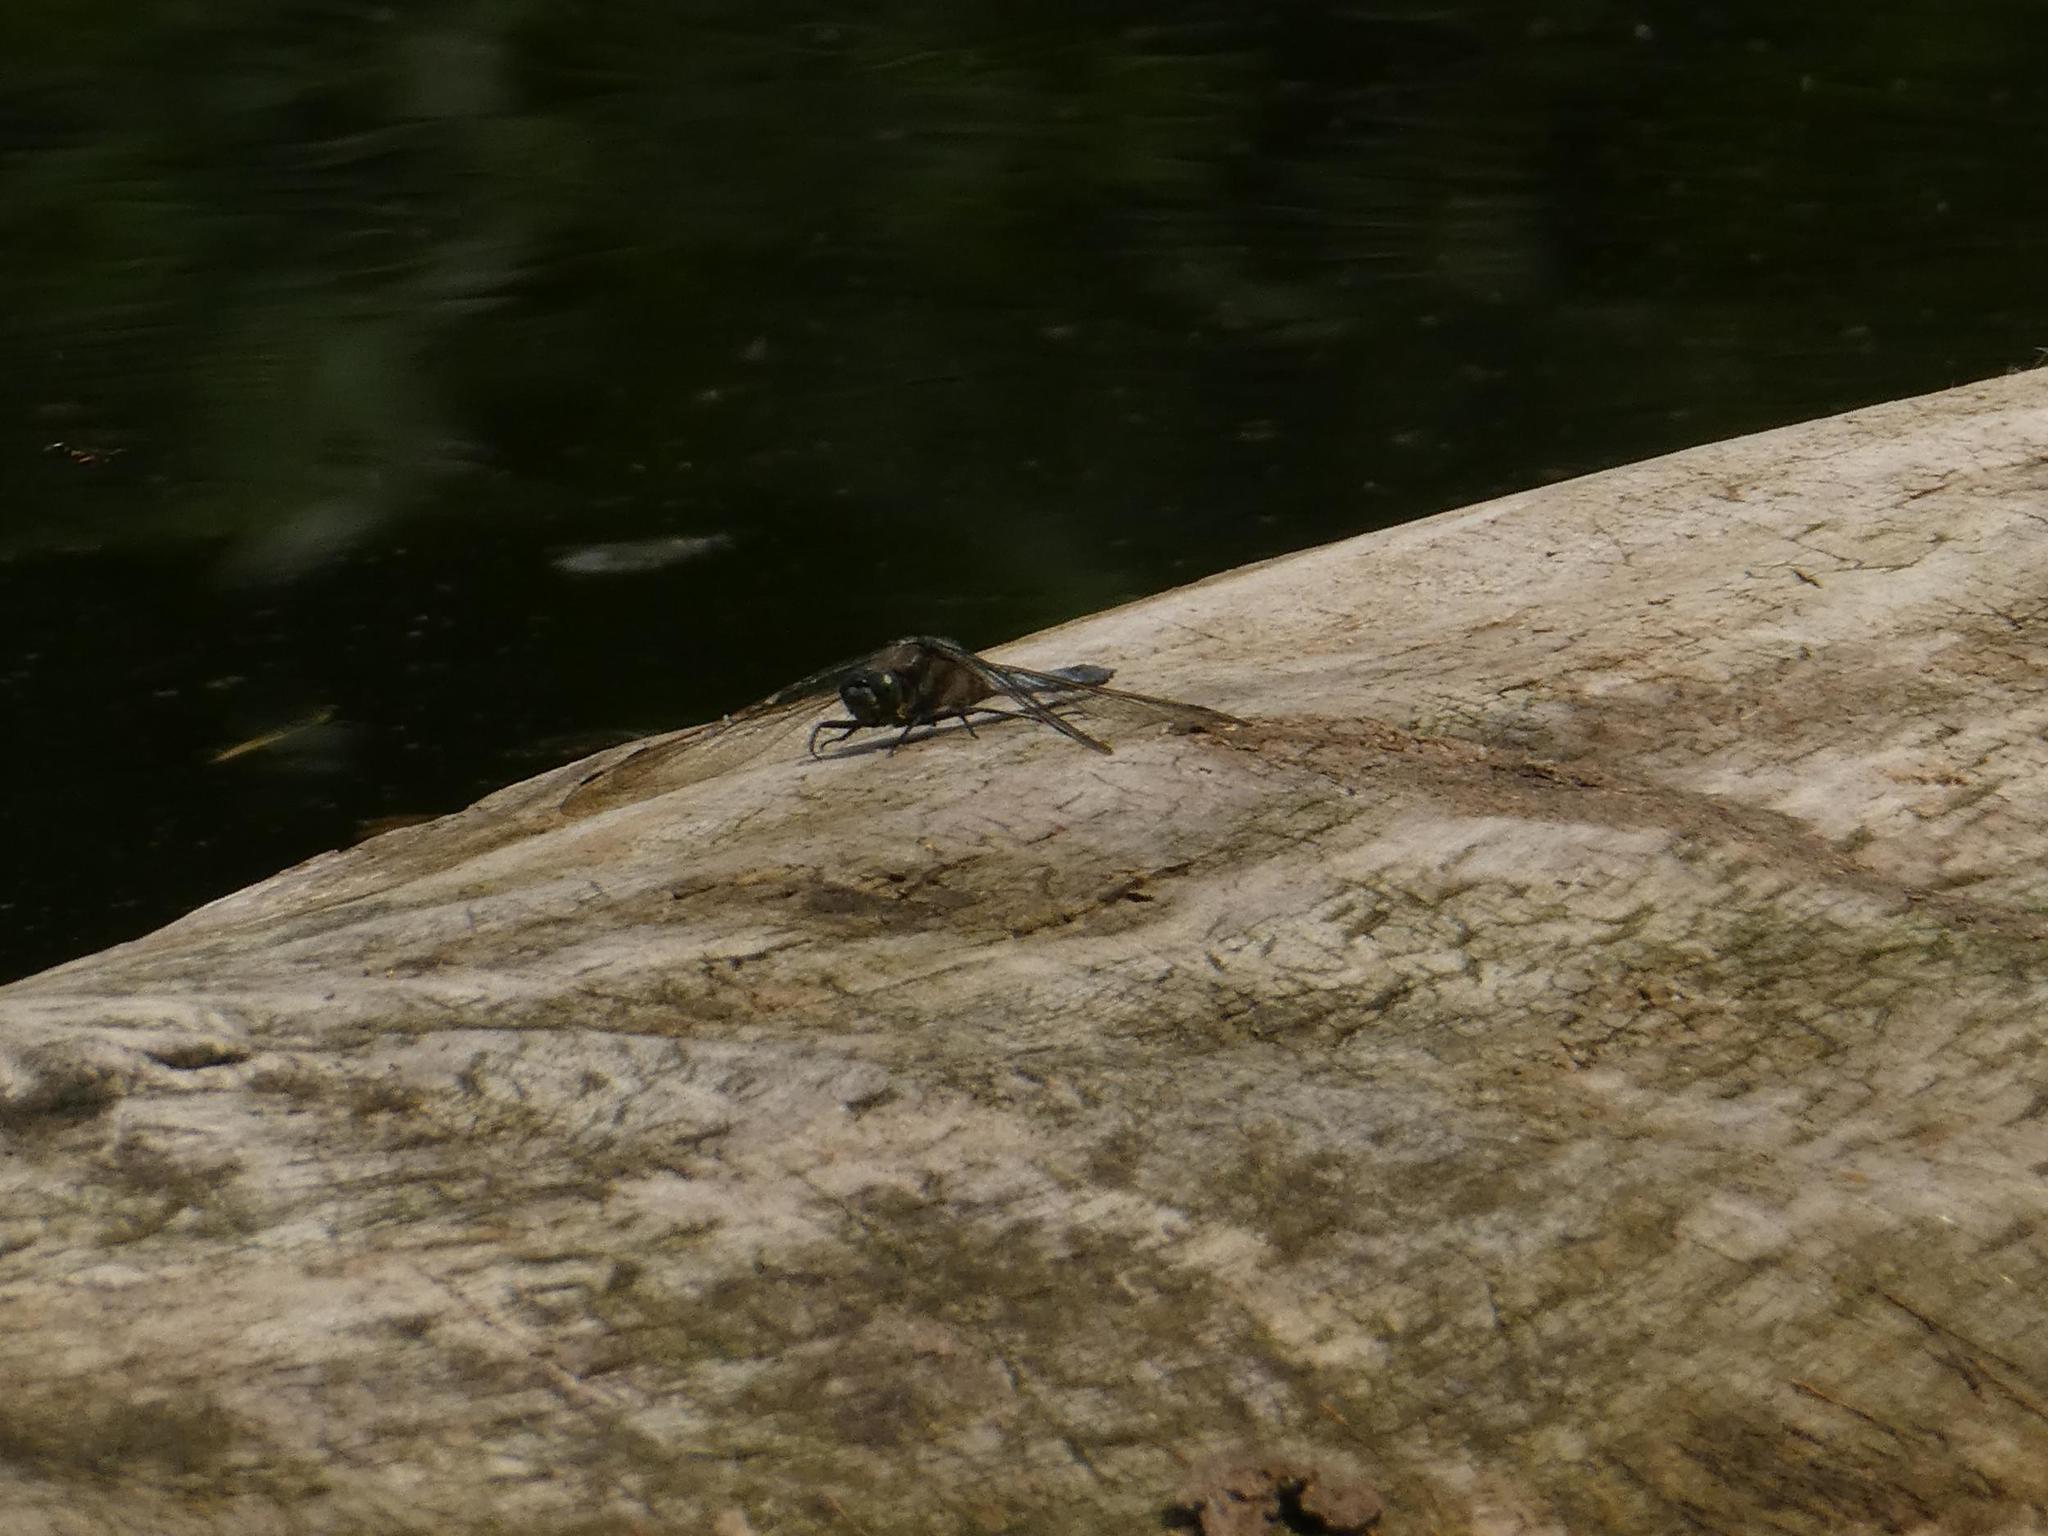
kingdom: Animalia
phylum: Arthropoda
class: Insecta
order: Odonata
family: Libellulidae
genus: Orthetrum
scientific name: Orthetrum cancellatum
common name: Black-tailed skimmer
